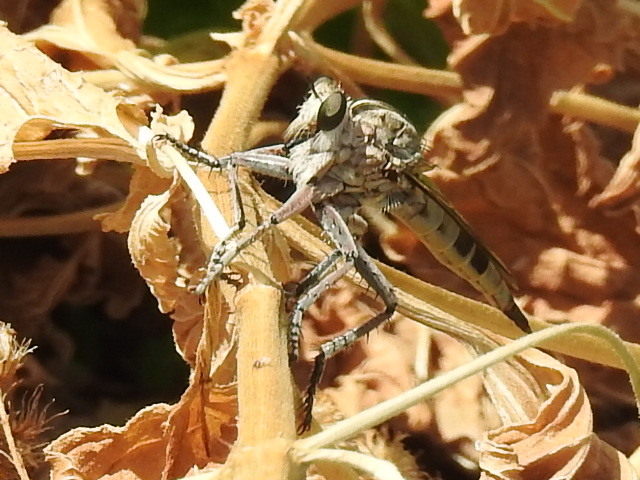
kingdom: Animalia
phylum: Arthropoda
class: Insecta
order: Diptera
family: Asilidae
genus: Triorla
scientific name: Triorla interrupta
